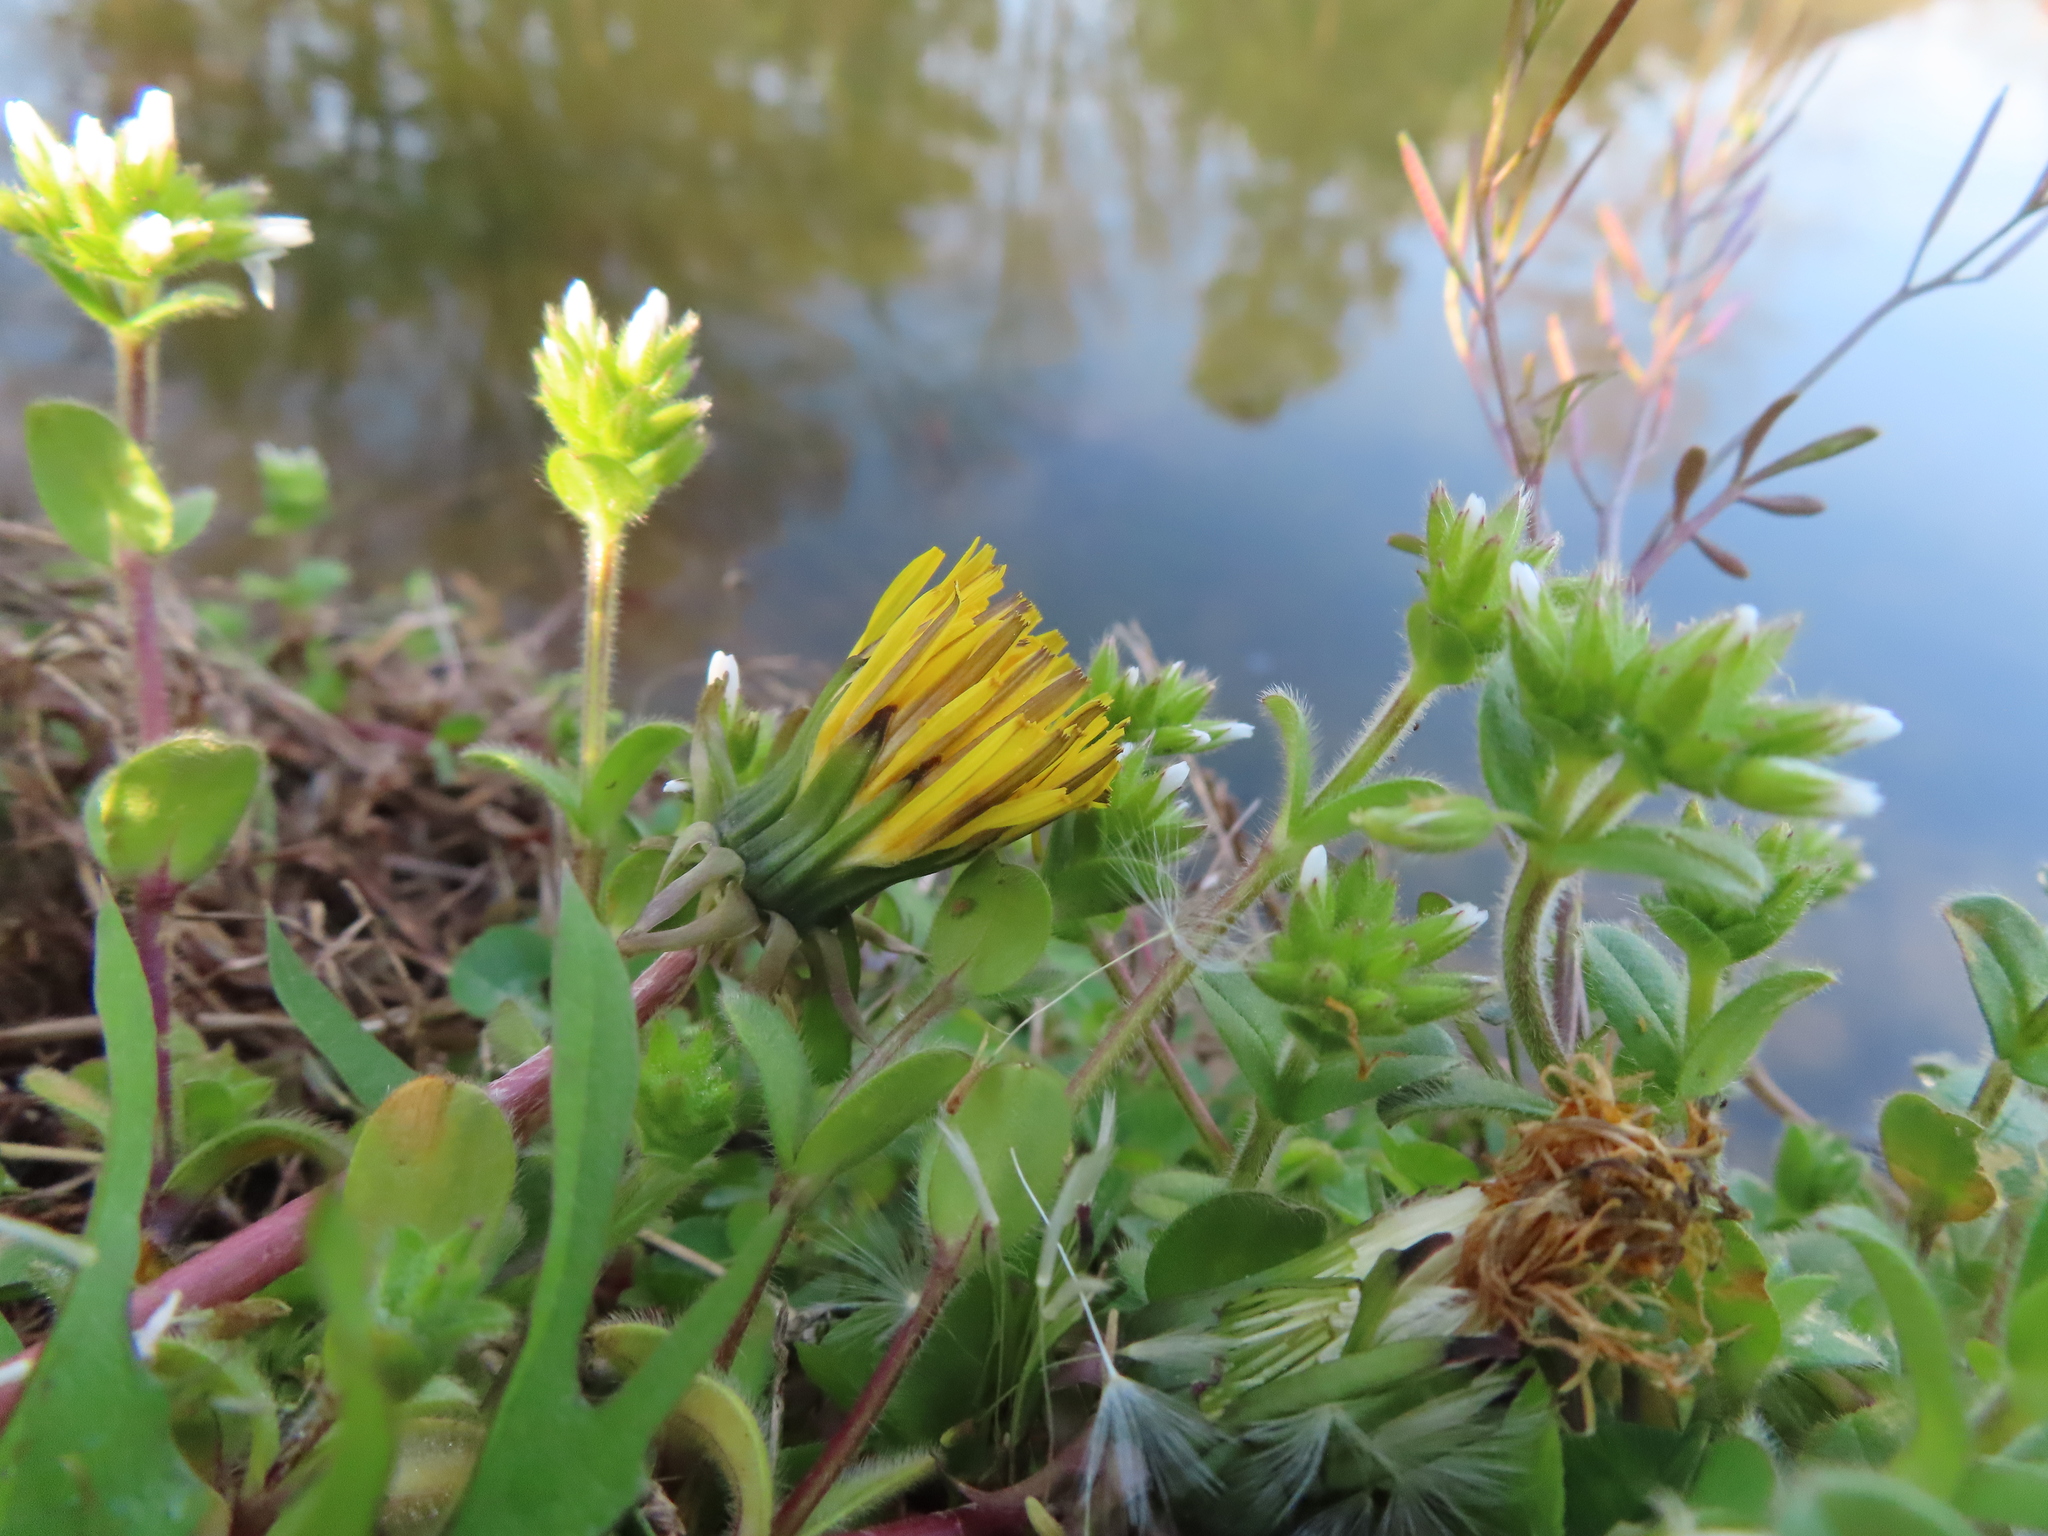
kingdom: Plantae
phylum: Tracheophyta
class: Magnoliopsida
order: Asterales
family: Asteraceae
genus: Taraxacum
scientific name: Taraxacum
